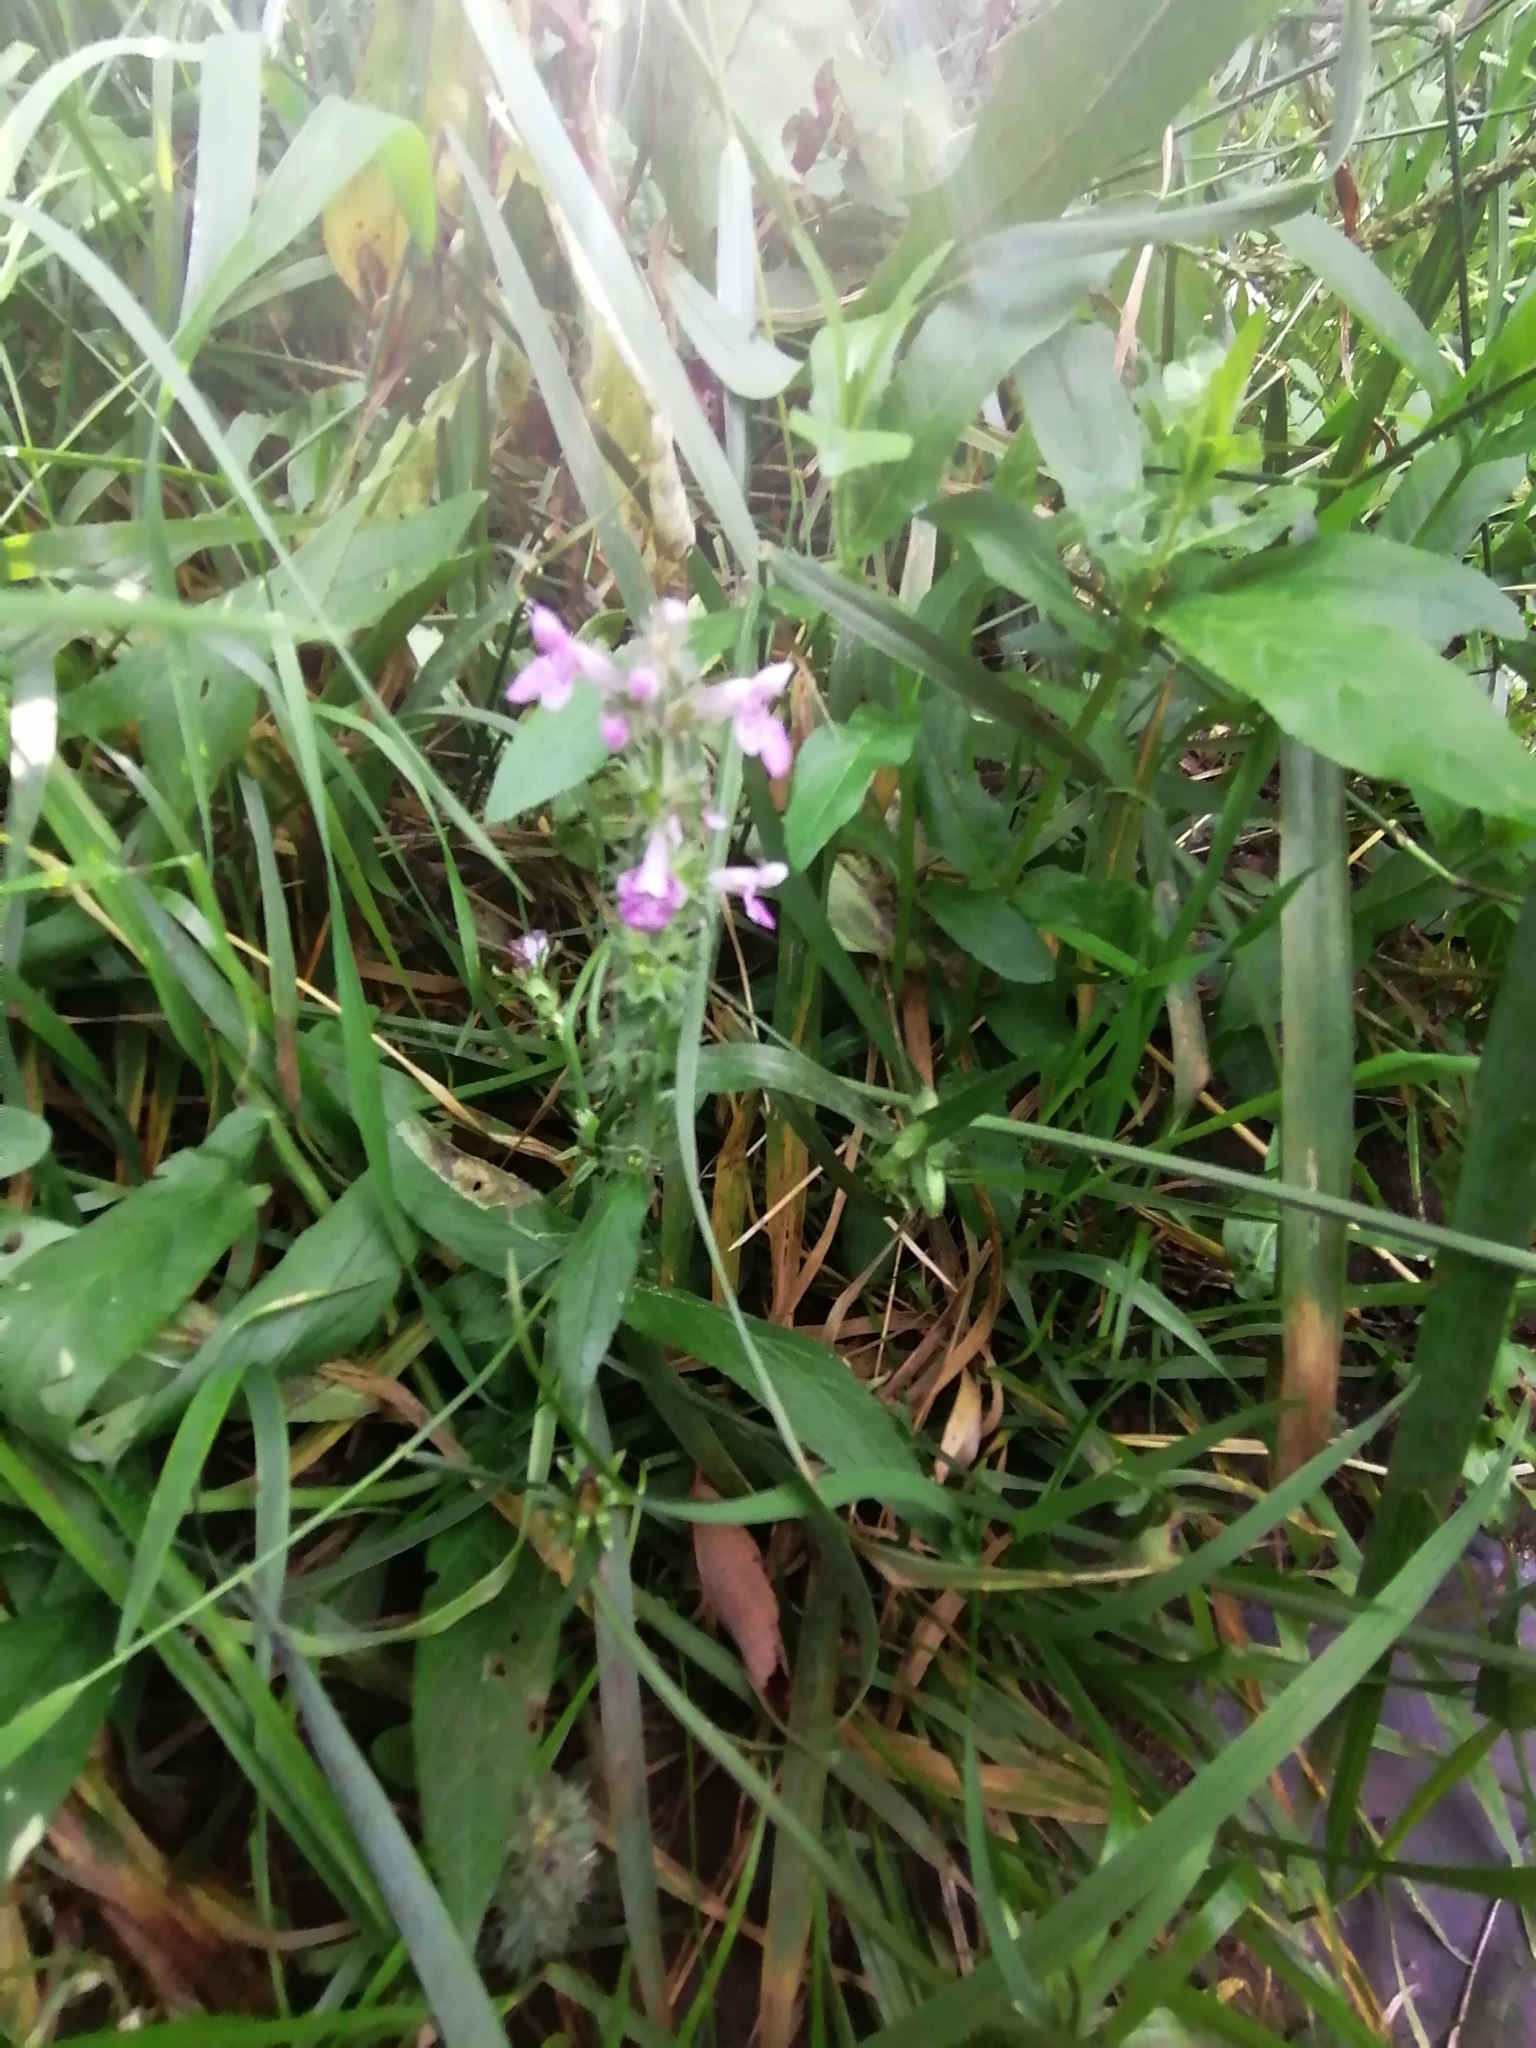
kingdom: Plantae
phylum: Tracheophyta
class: Magnoliopsida
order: Lamiales
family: Lamiaceae
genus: Stachys
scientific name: Stachys palustris
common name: Marsh woundwort
